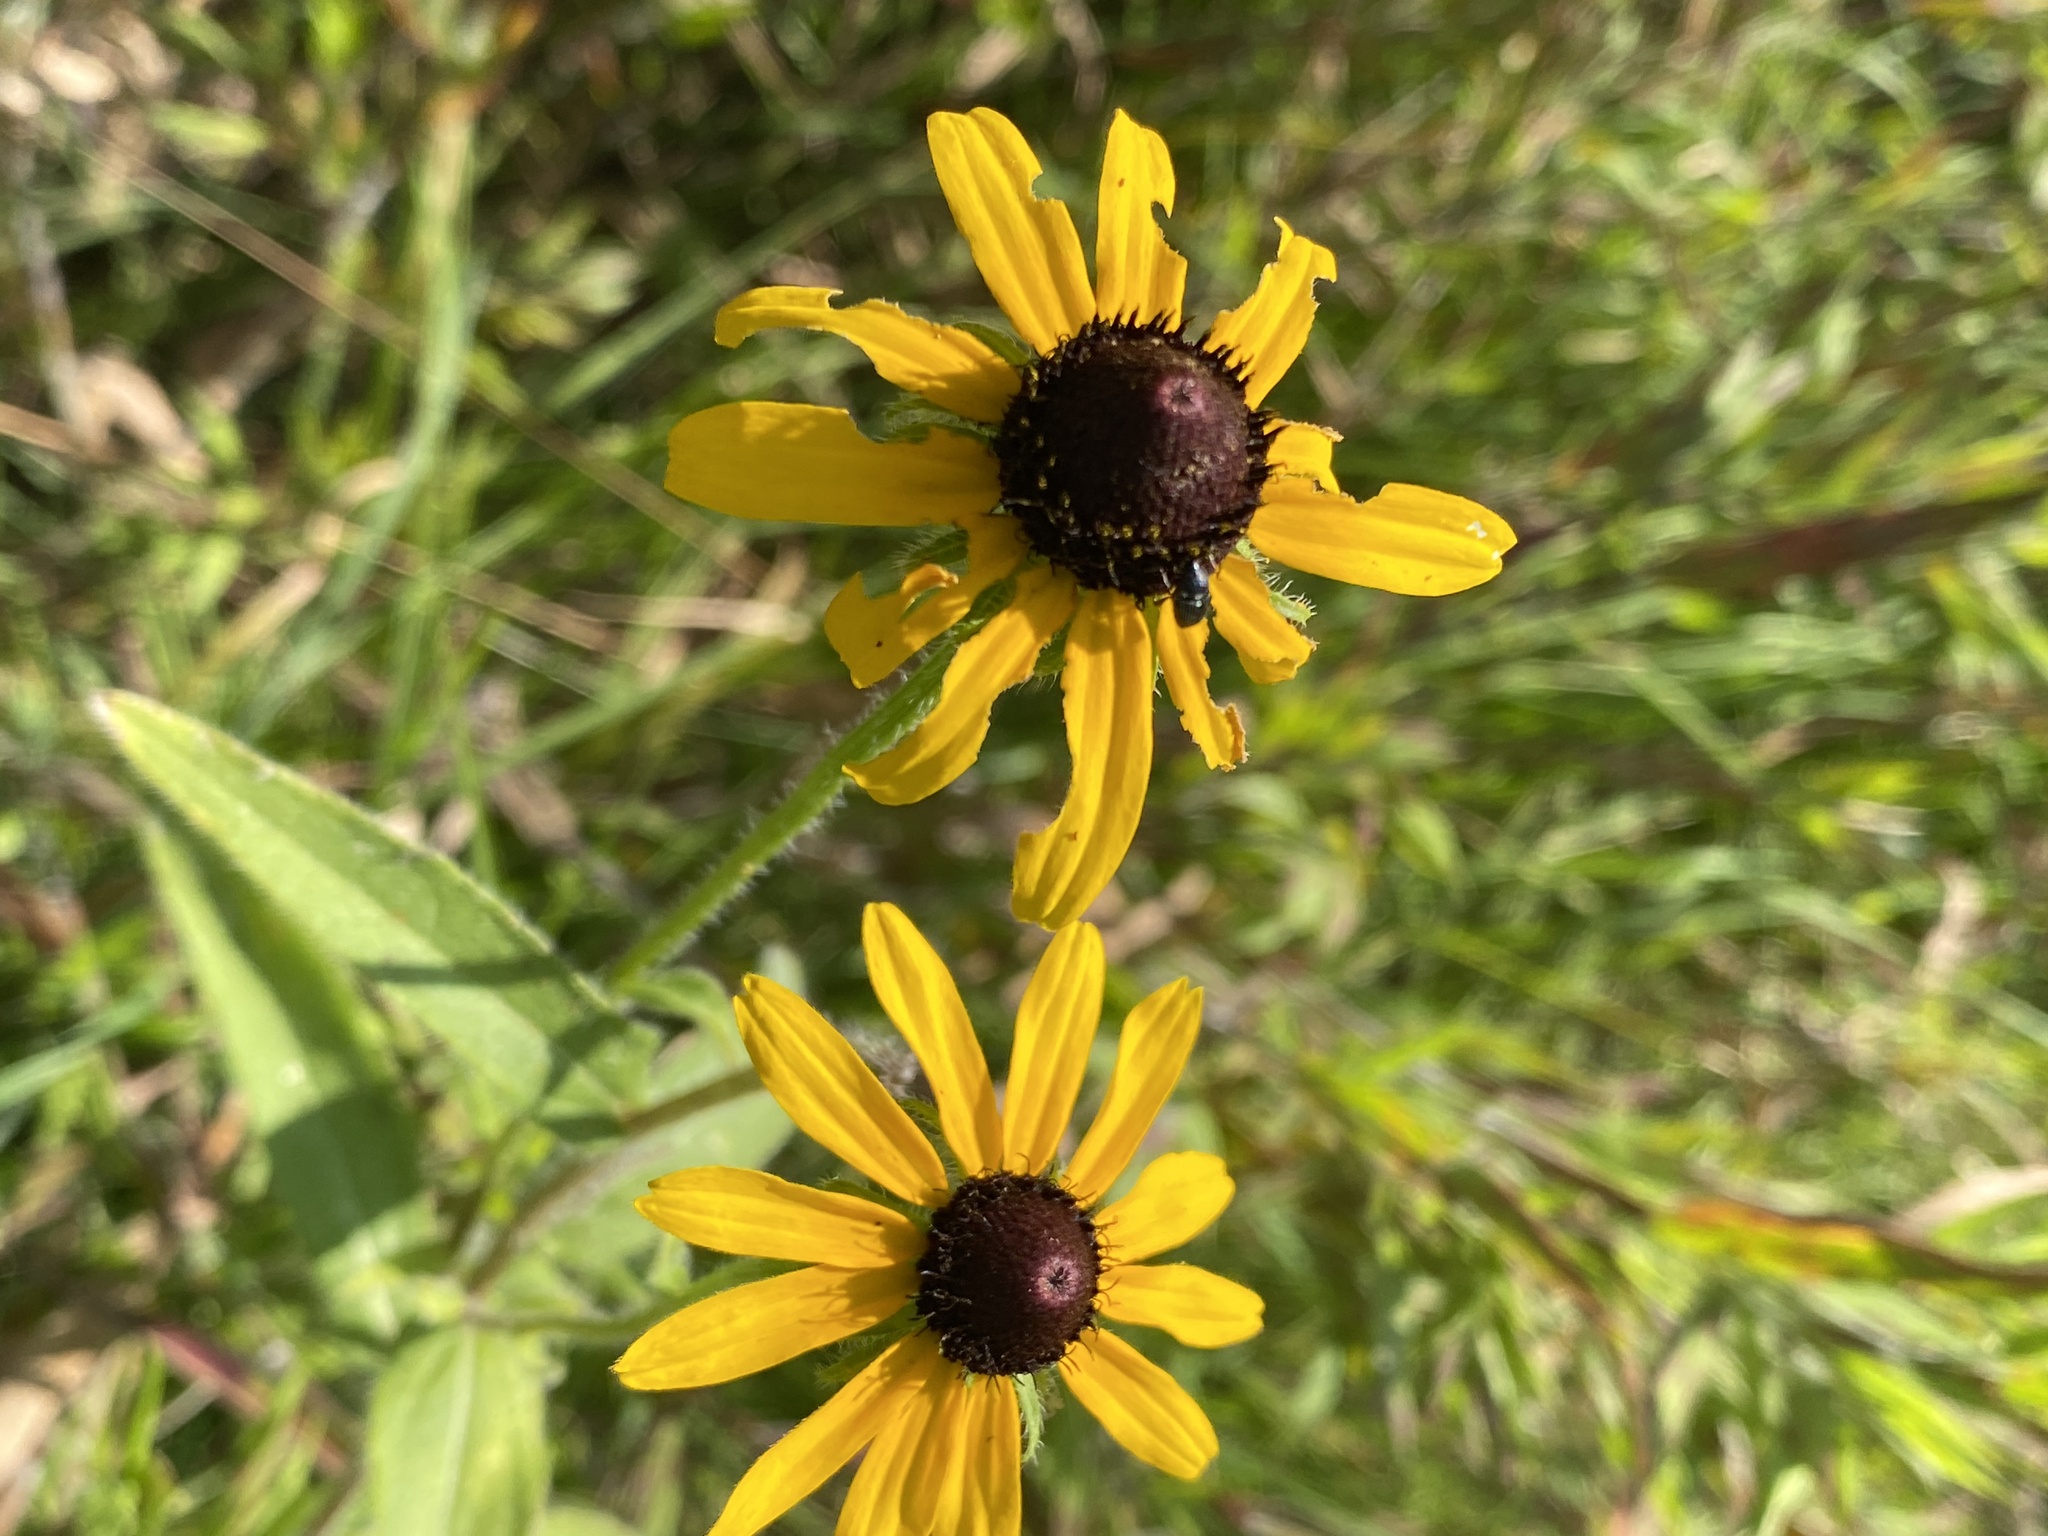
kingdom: Plantae
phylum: Tracheophyta
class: Magnoliopsida
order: Asterales
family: Asteraceae
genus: Rudbeckia
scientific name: Rudbeckia hirta
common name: Black-eyed-susan
